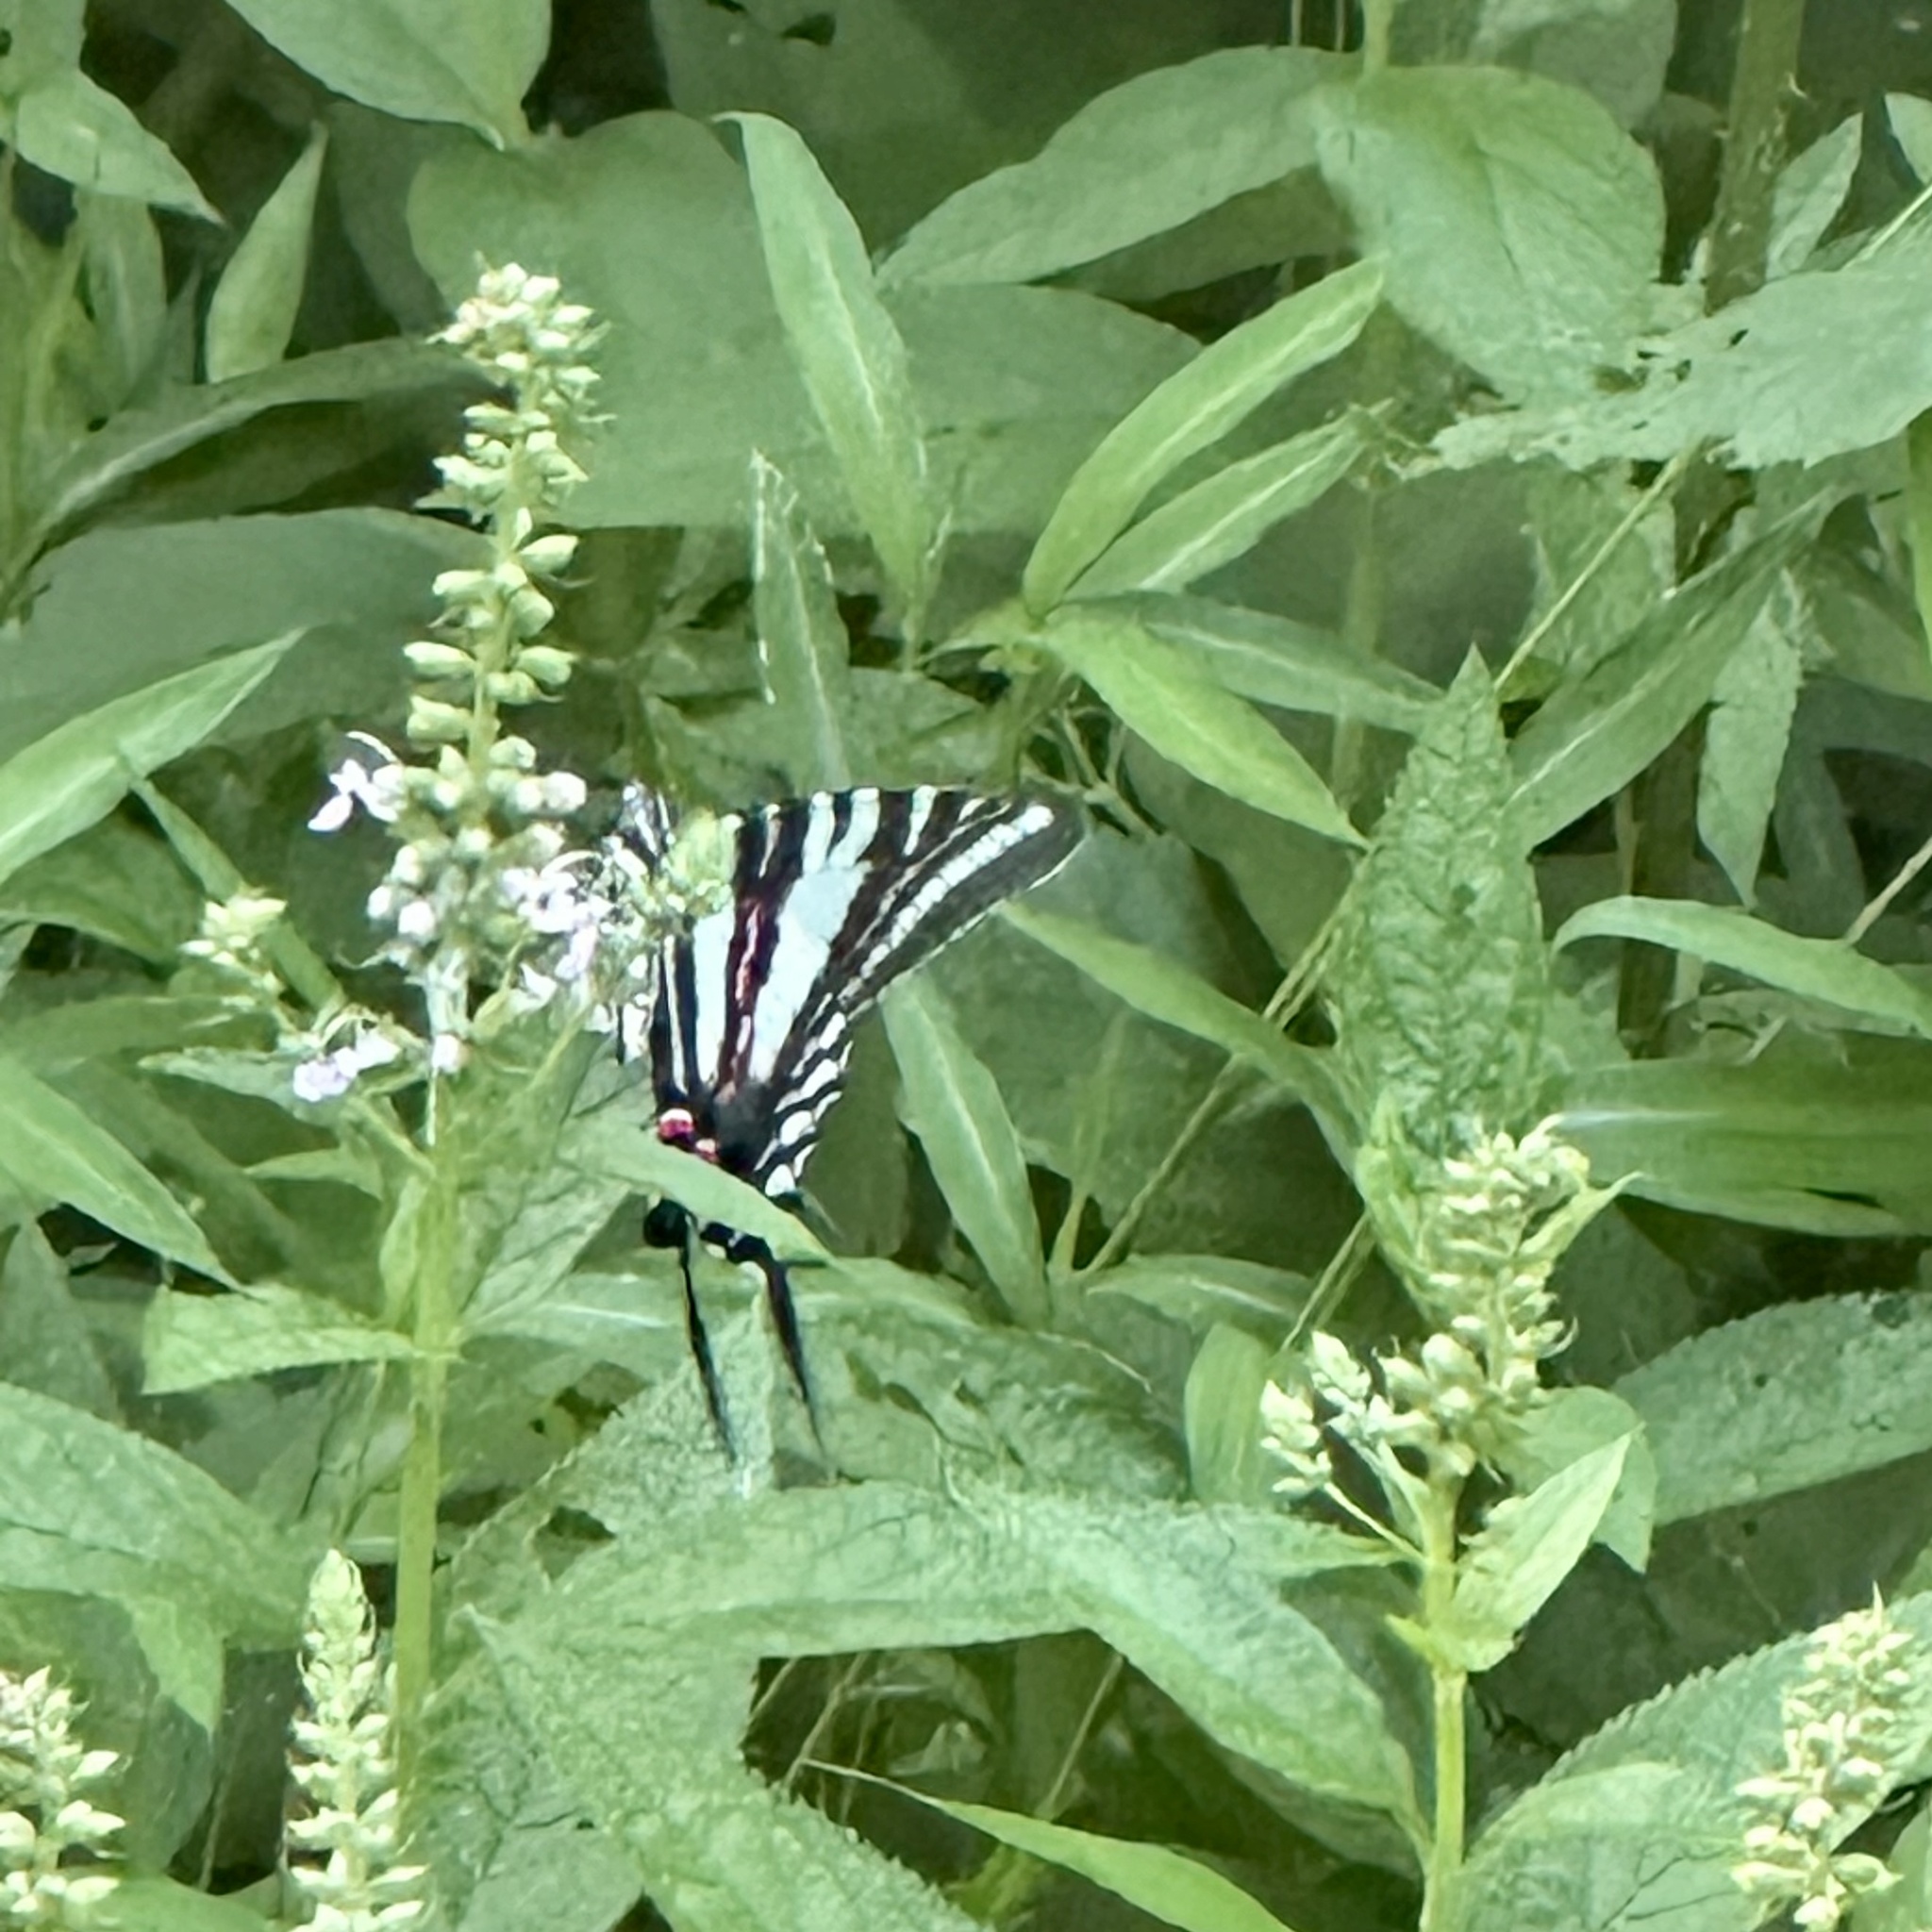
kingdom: Animalia
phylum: Arthropoda
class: Insecta
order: Lepidoptera
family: Papilionidae
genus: Protographium
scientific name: Protographium marcellus
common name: Zebra swallowtail
